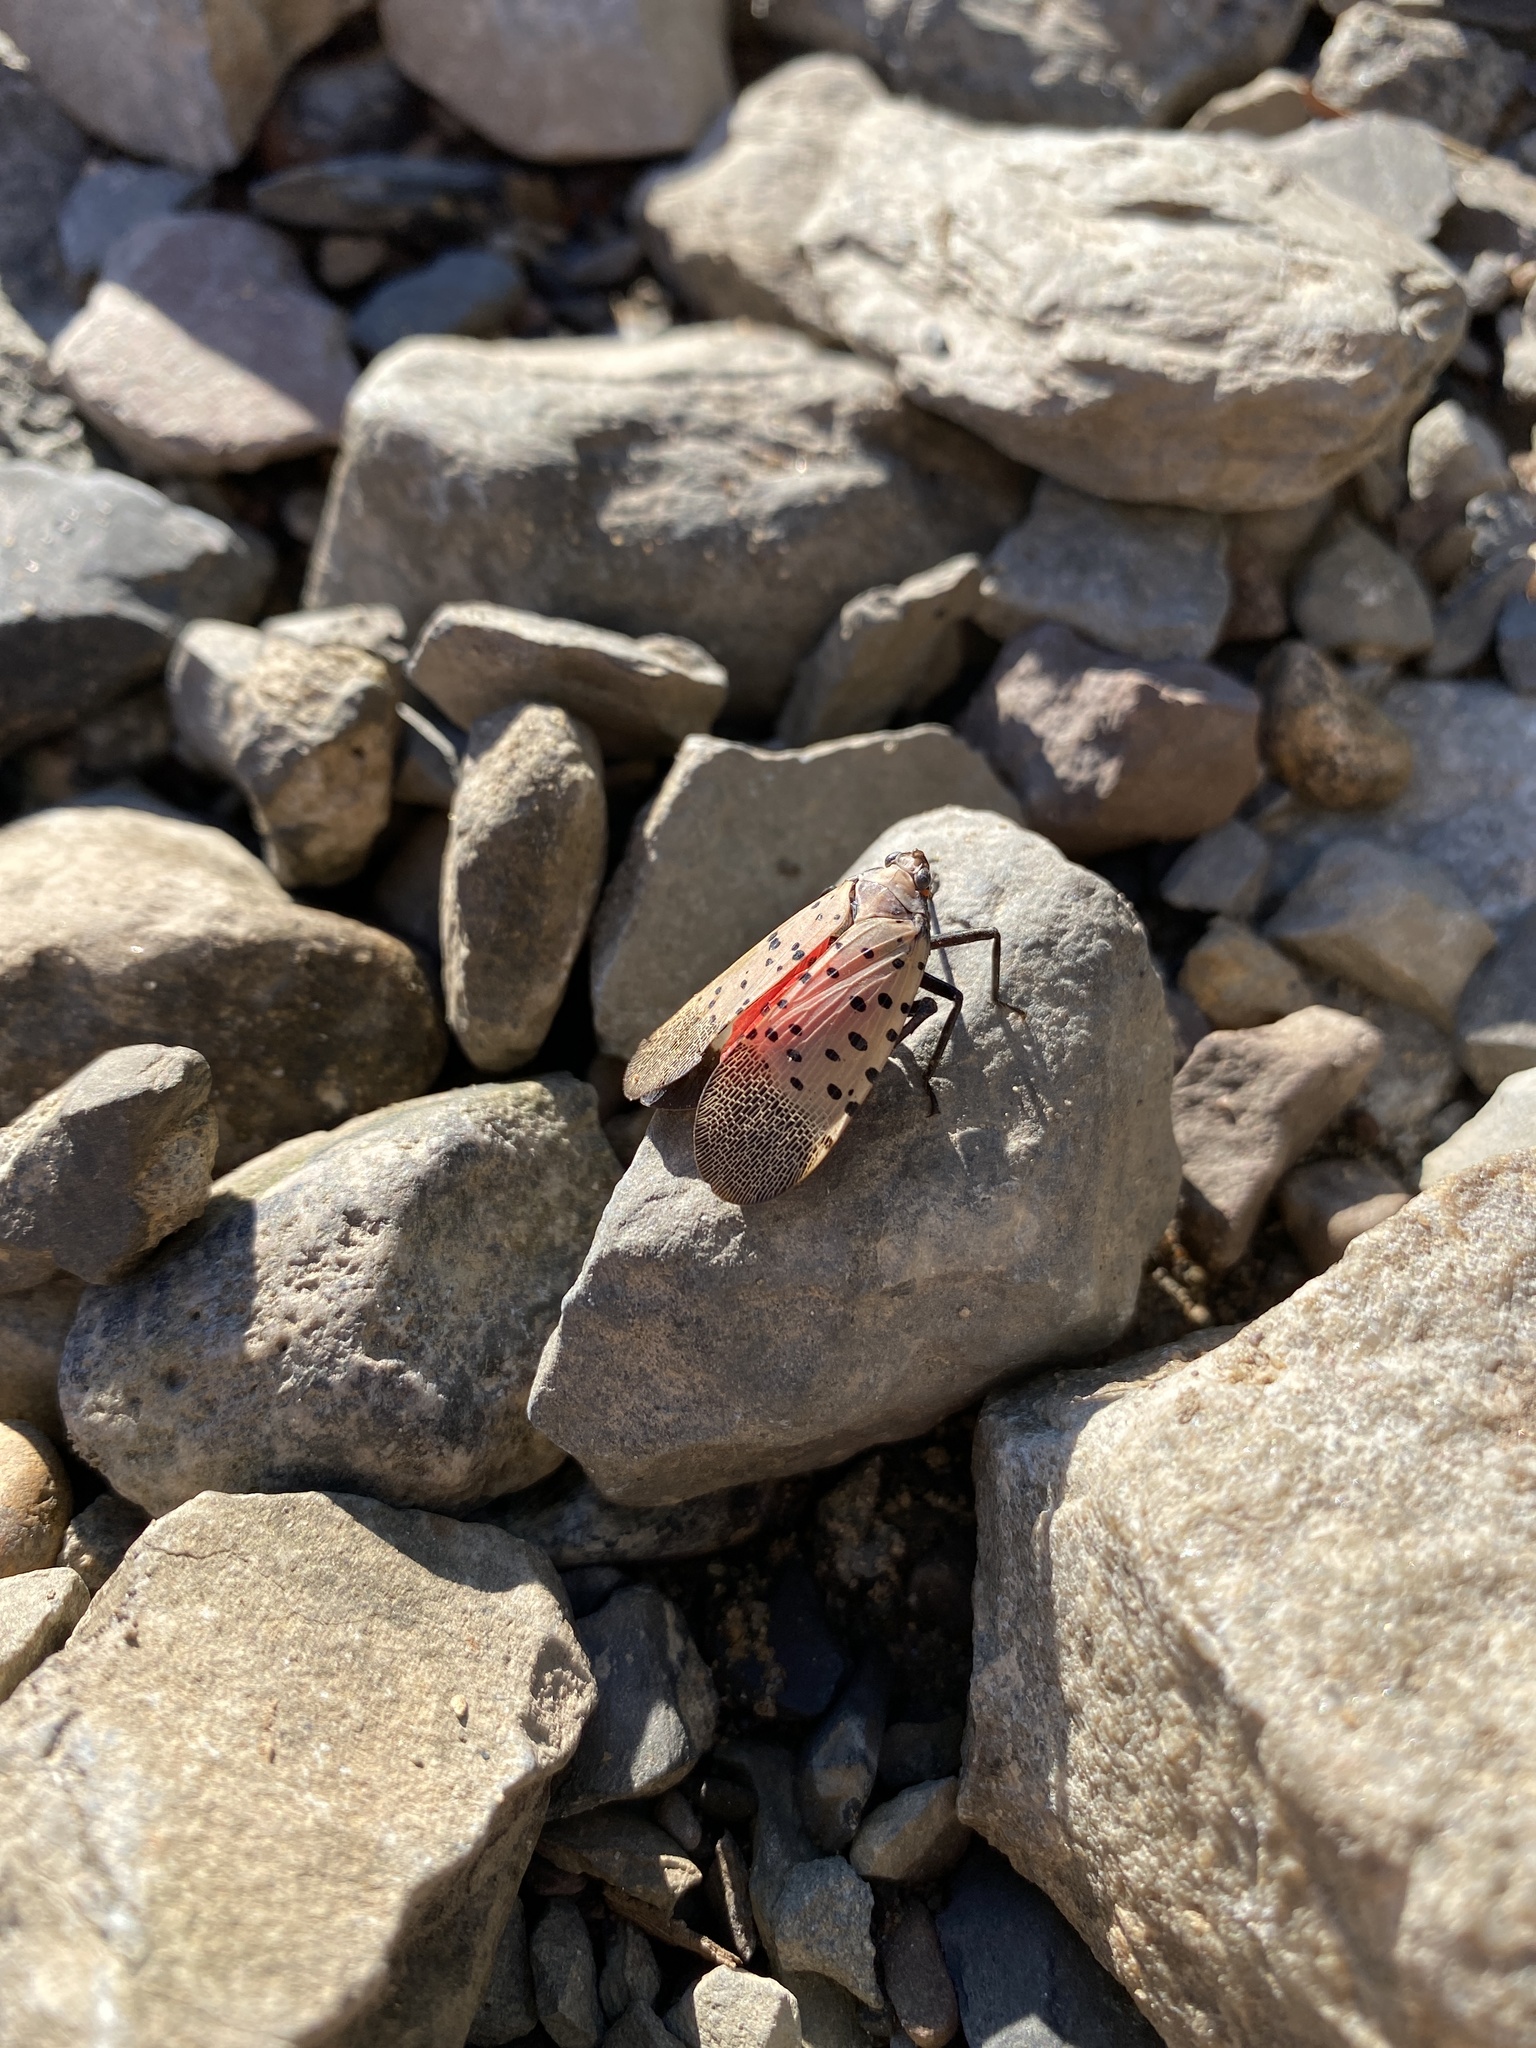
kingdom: Animalia
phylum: Arthropoda
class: Insecta
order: Hemiptera
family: Fulgoridae
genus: Lycorma
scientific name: Lycorma delicatula
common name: Spotted lanternfly
